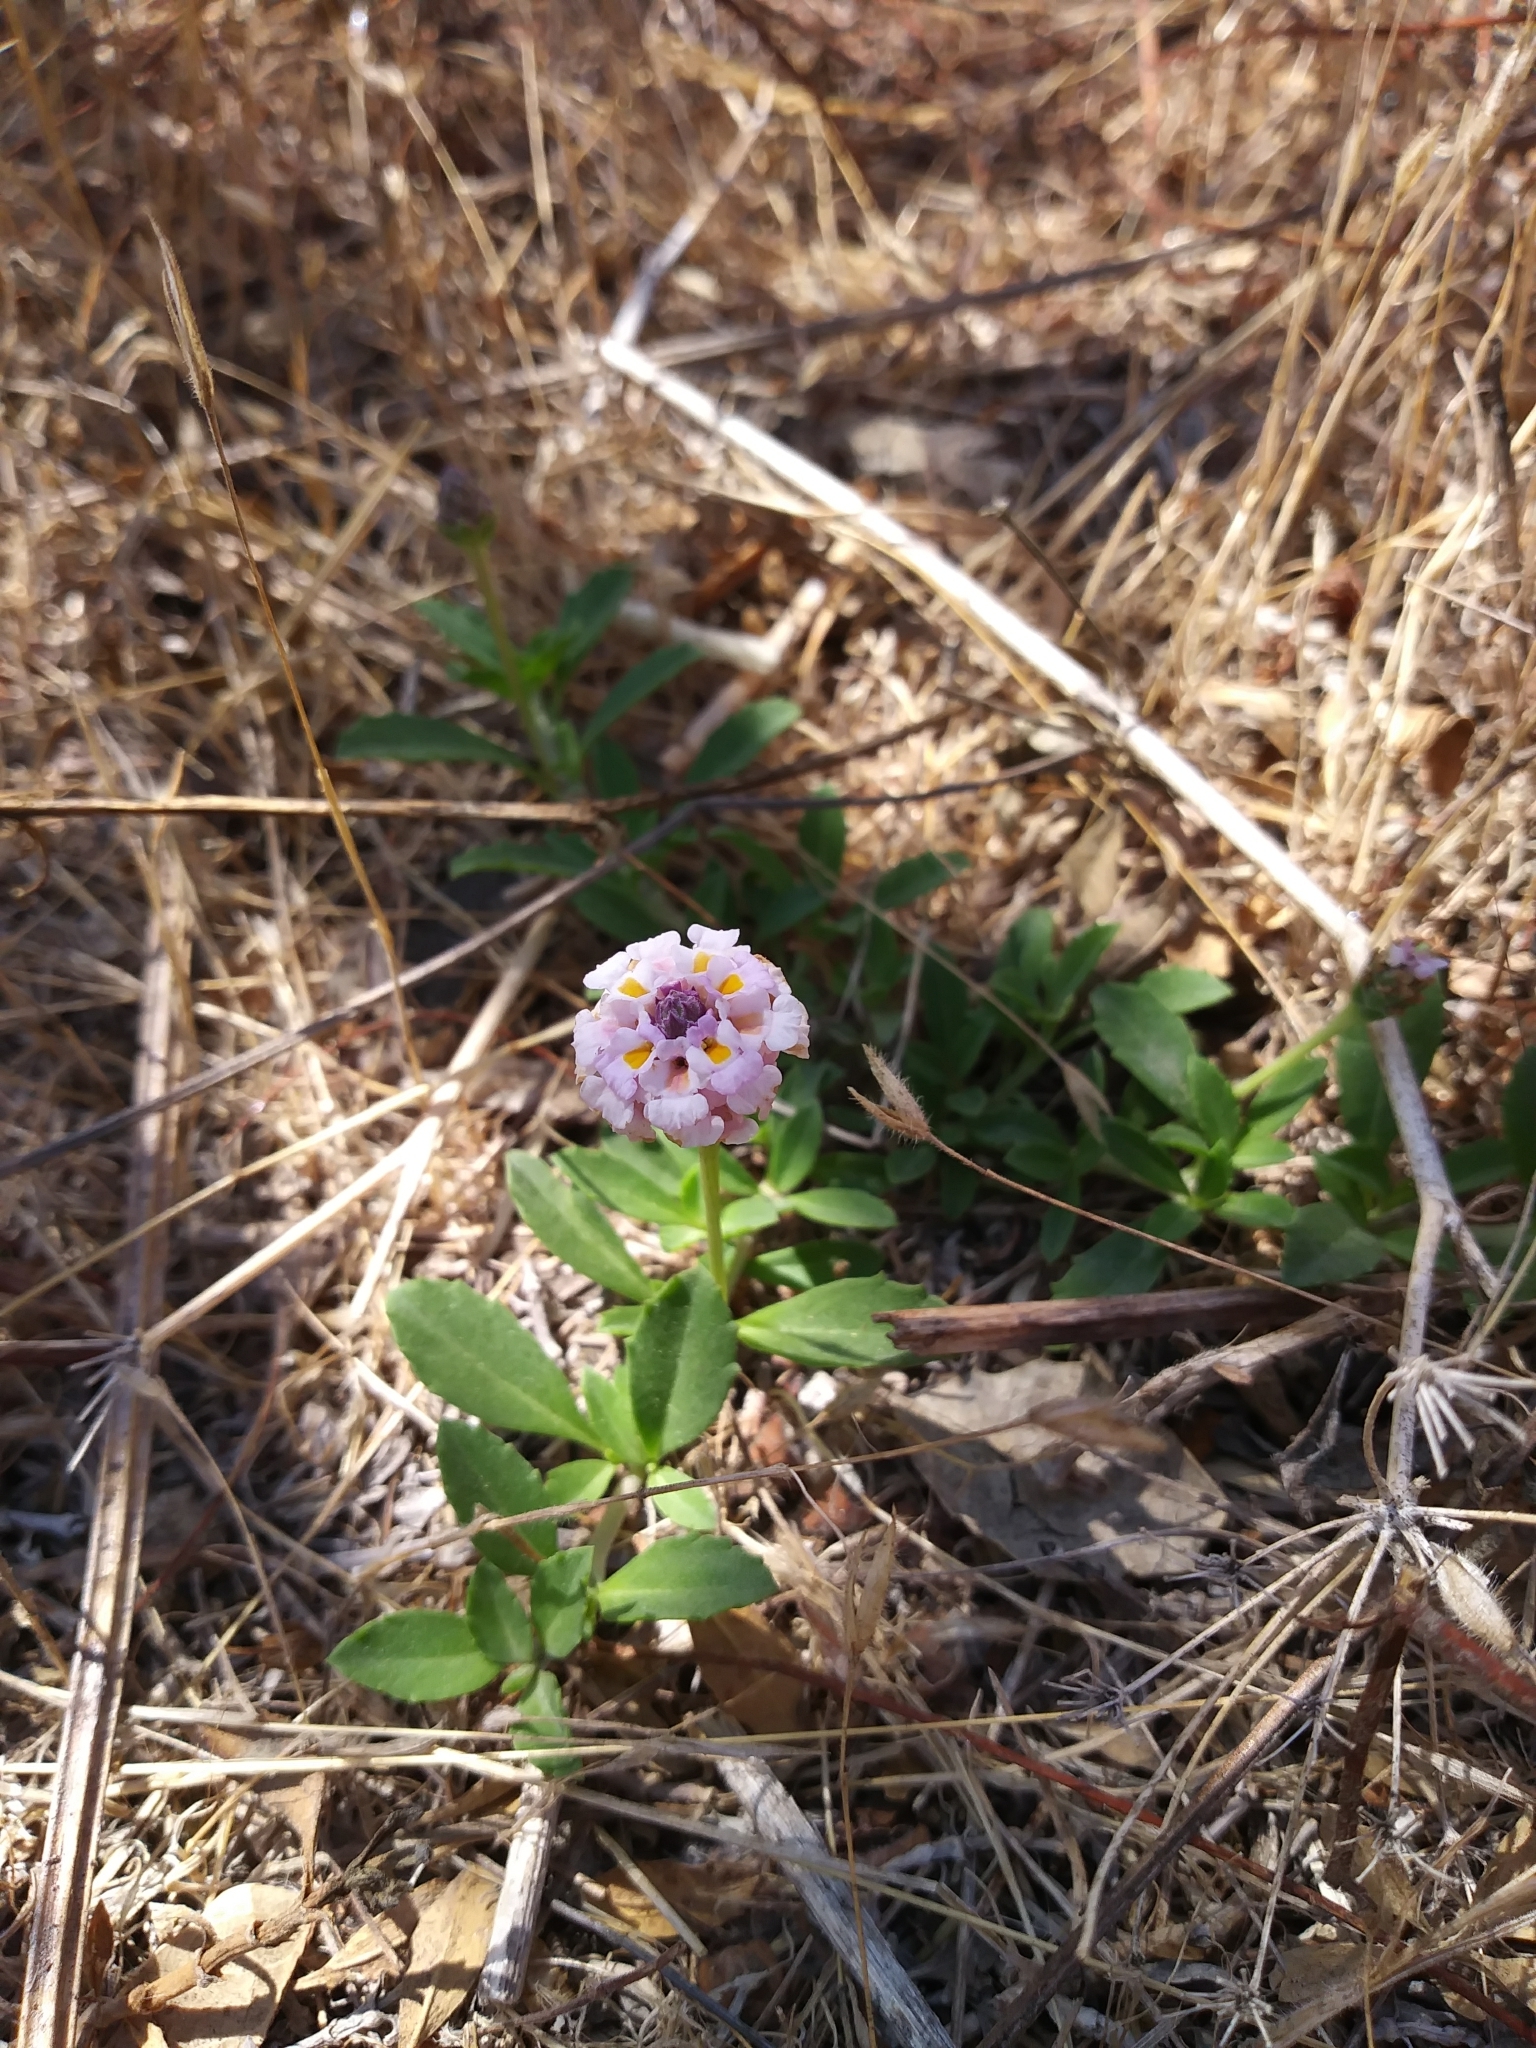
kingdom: Plantae
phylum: Tracheophyta
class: Magnoliopsida
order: Lamiales
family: Verbenaceae
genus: Phyla
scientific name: Phyla nodiflora
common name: Frogfruit
